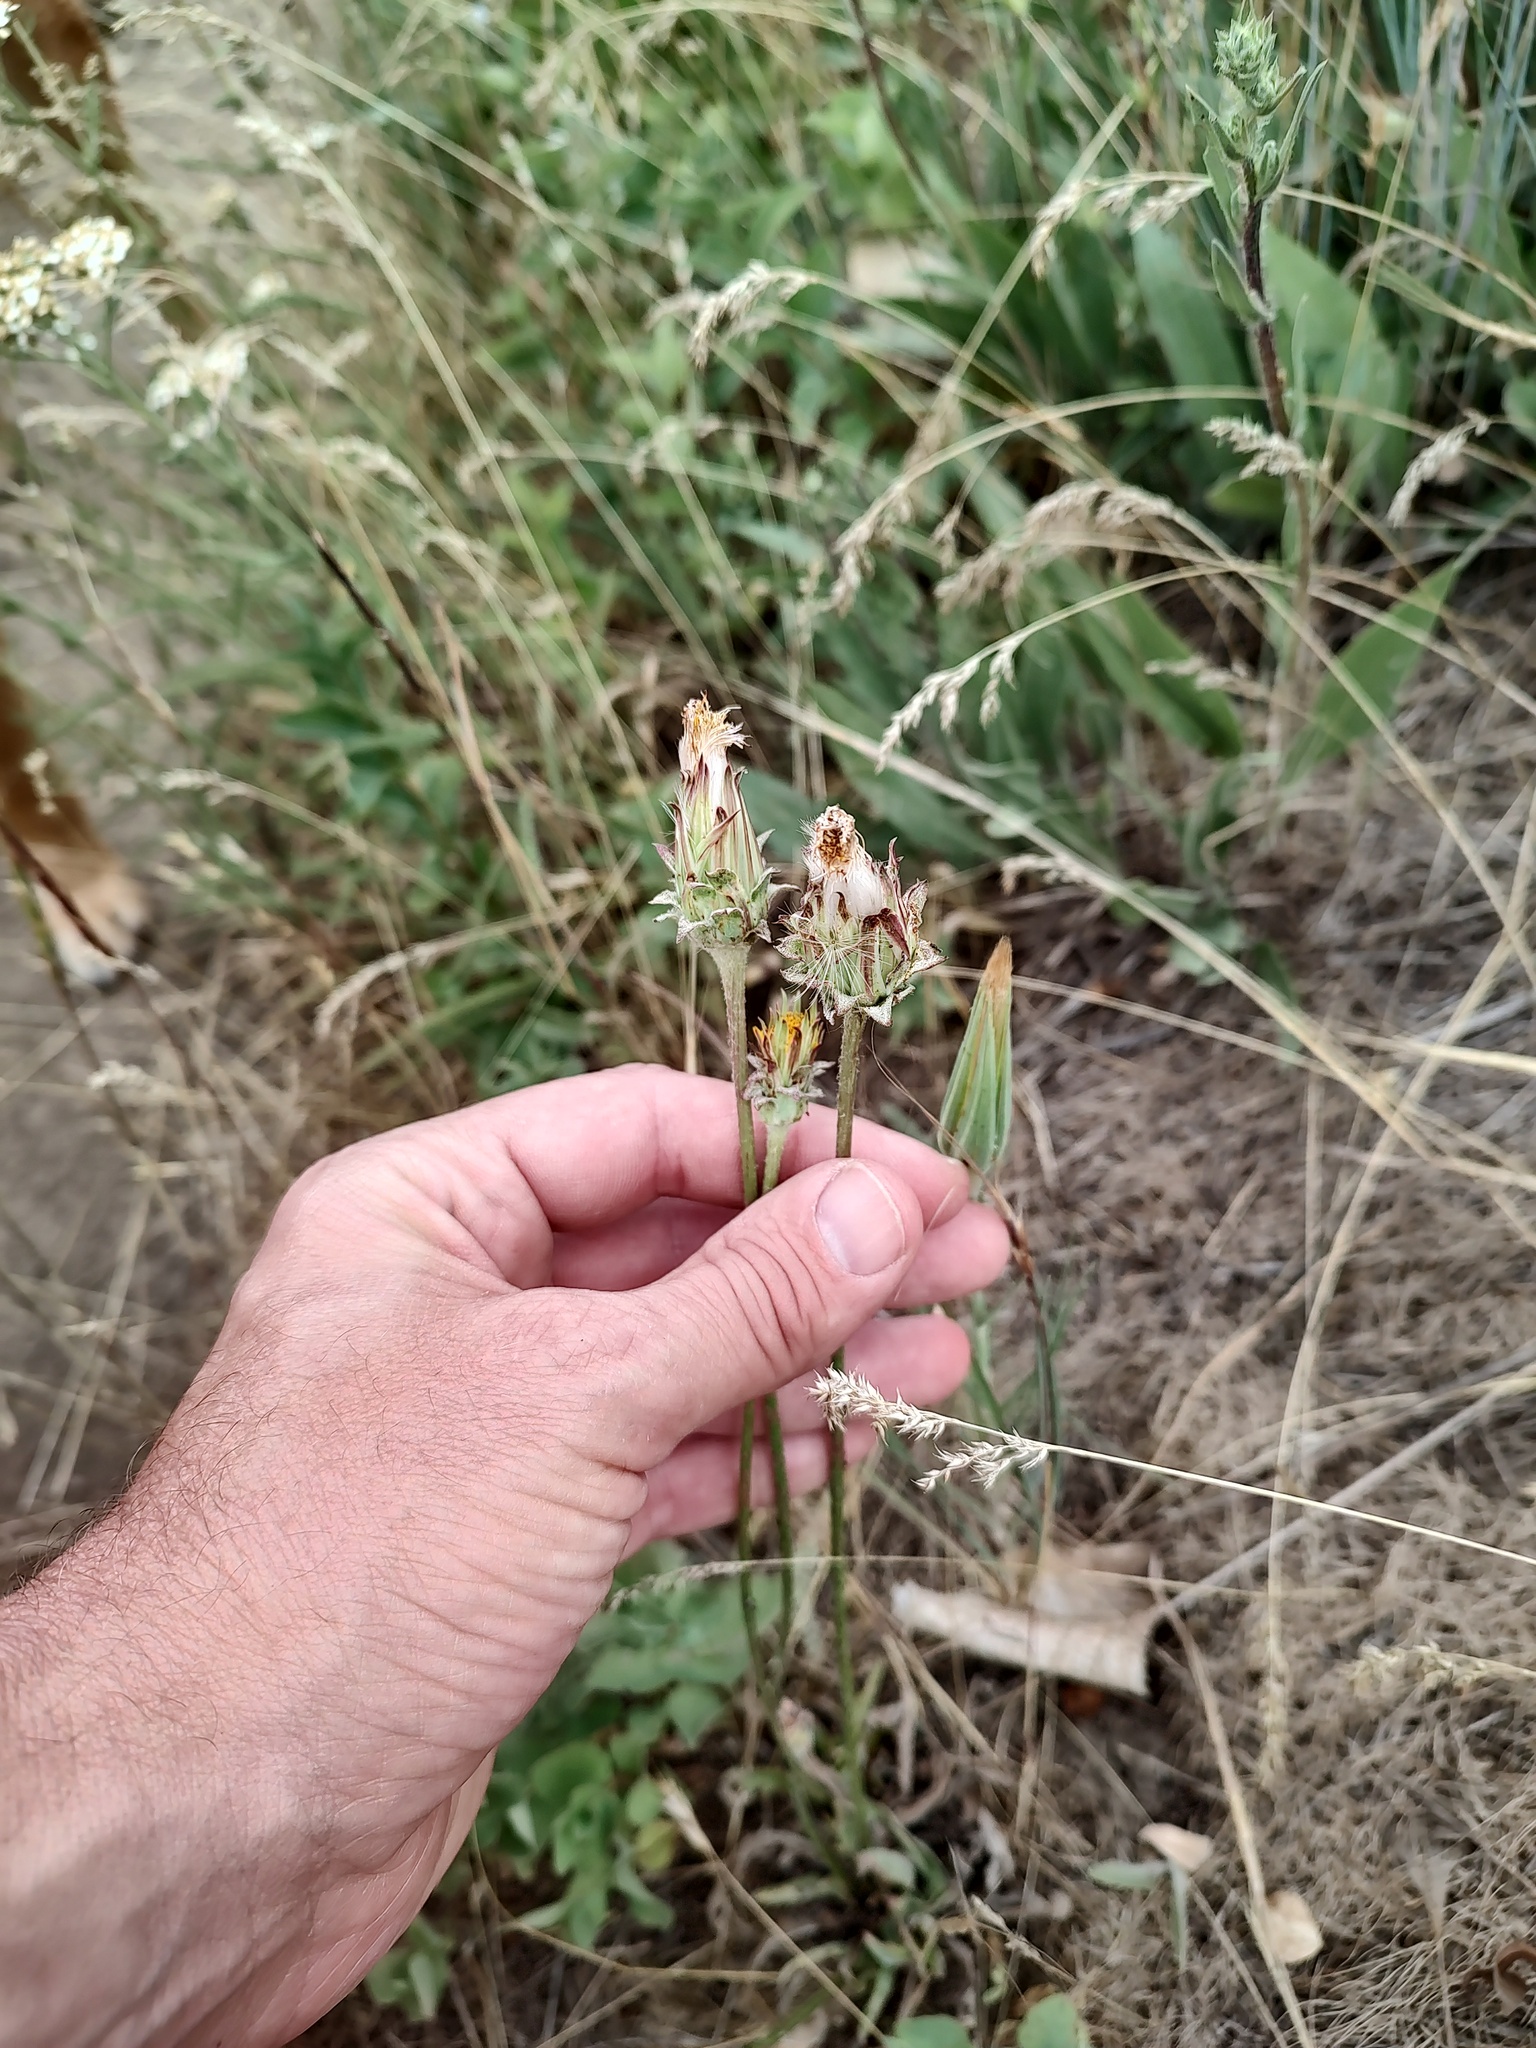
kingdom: Plantae
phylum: Tracheophyta
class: Magnoliopsida
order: Asterales
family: Asteraceae
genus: Agoseris
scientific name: Agoseris grandiflora
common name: Grassland agoseris
